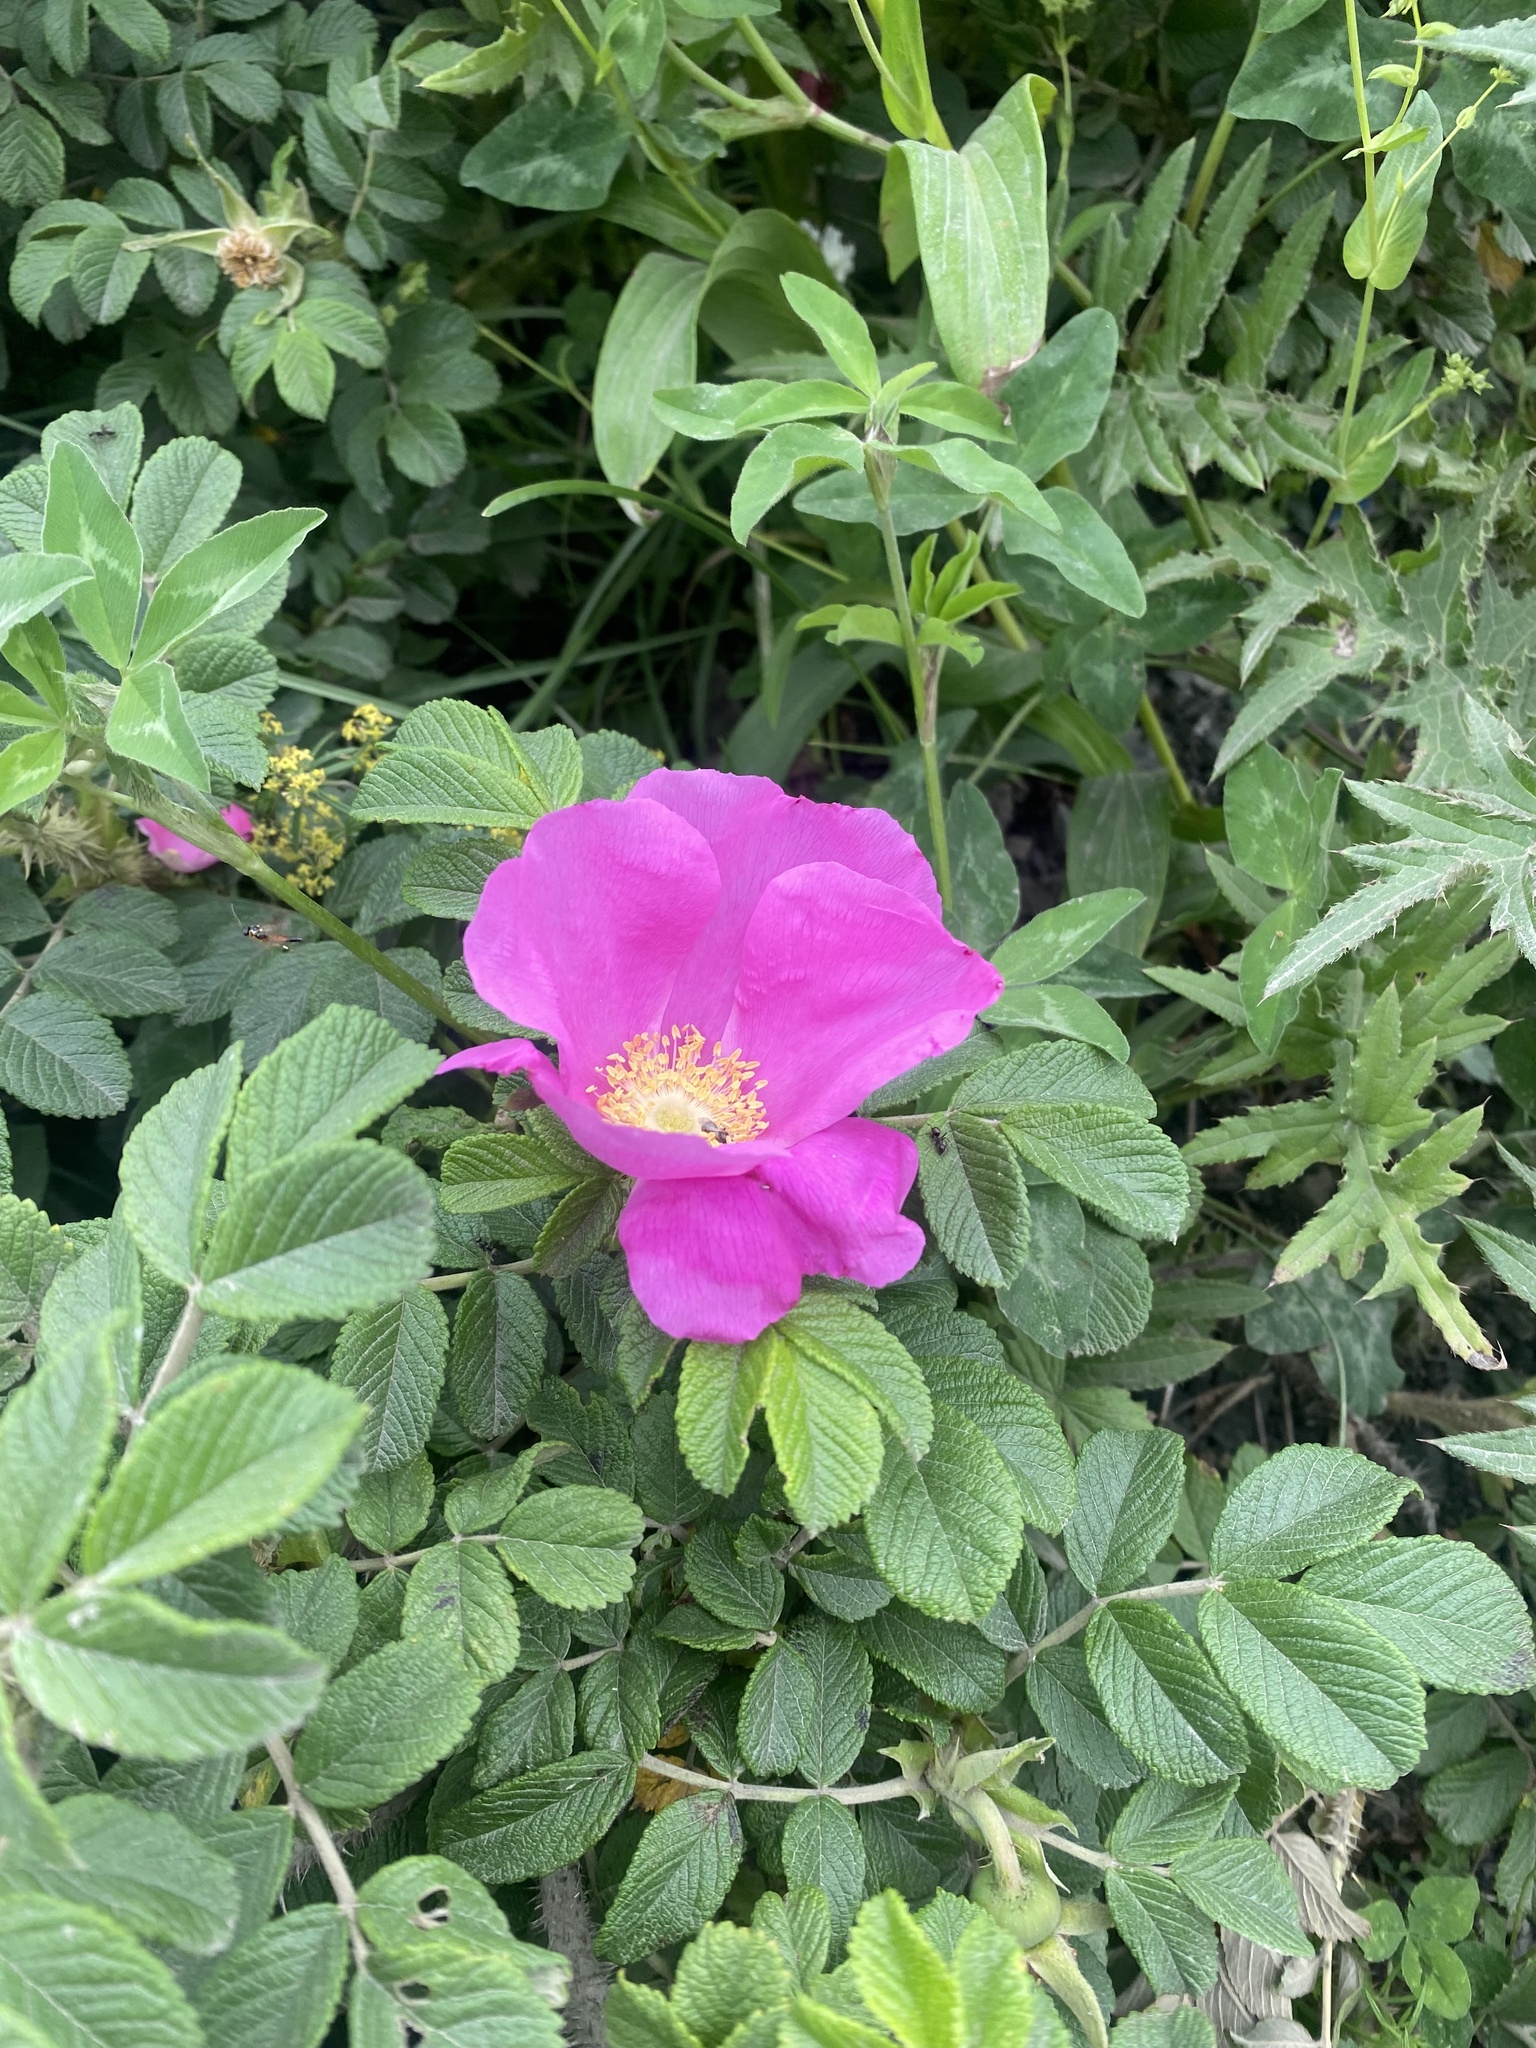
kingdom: Plantae
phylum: Tracheophyta
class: Magnoliopsida
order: Rosales
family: Rosaceae
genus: Rosa
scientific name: Rosa rugosa
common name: Japanese rose
